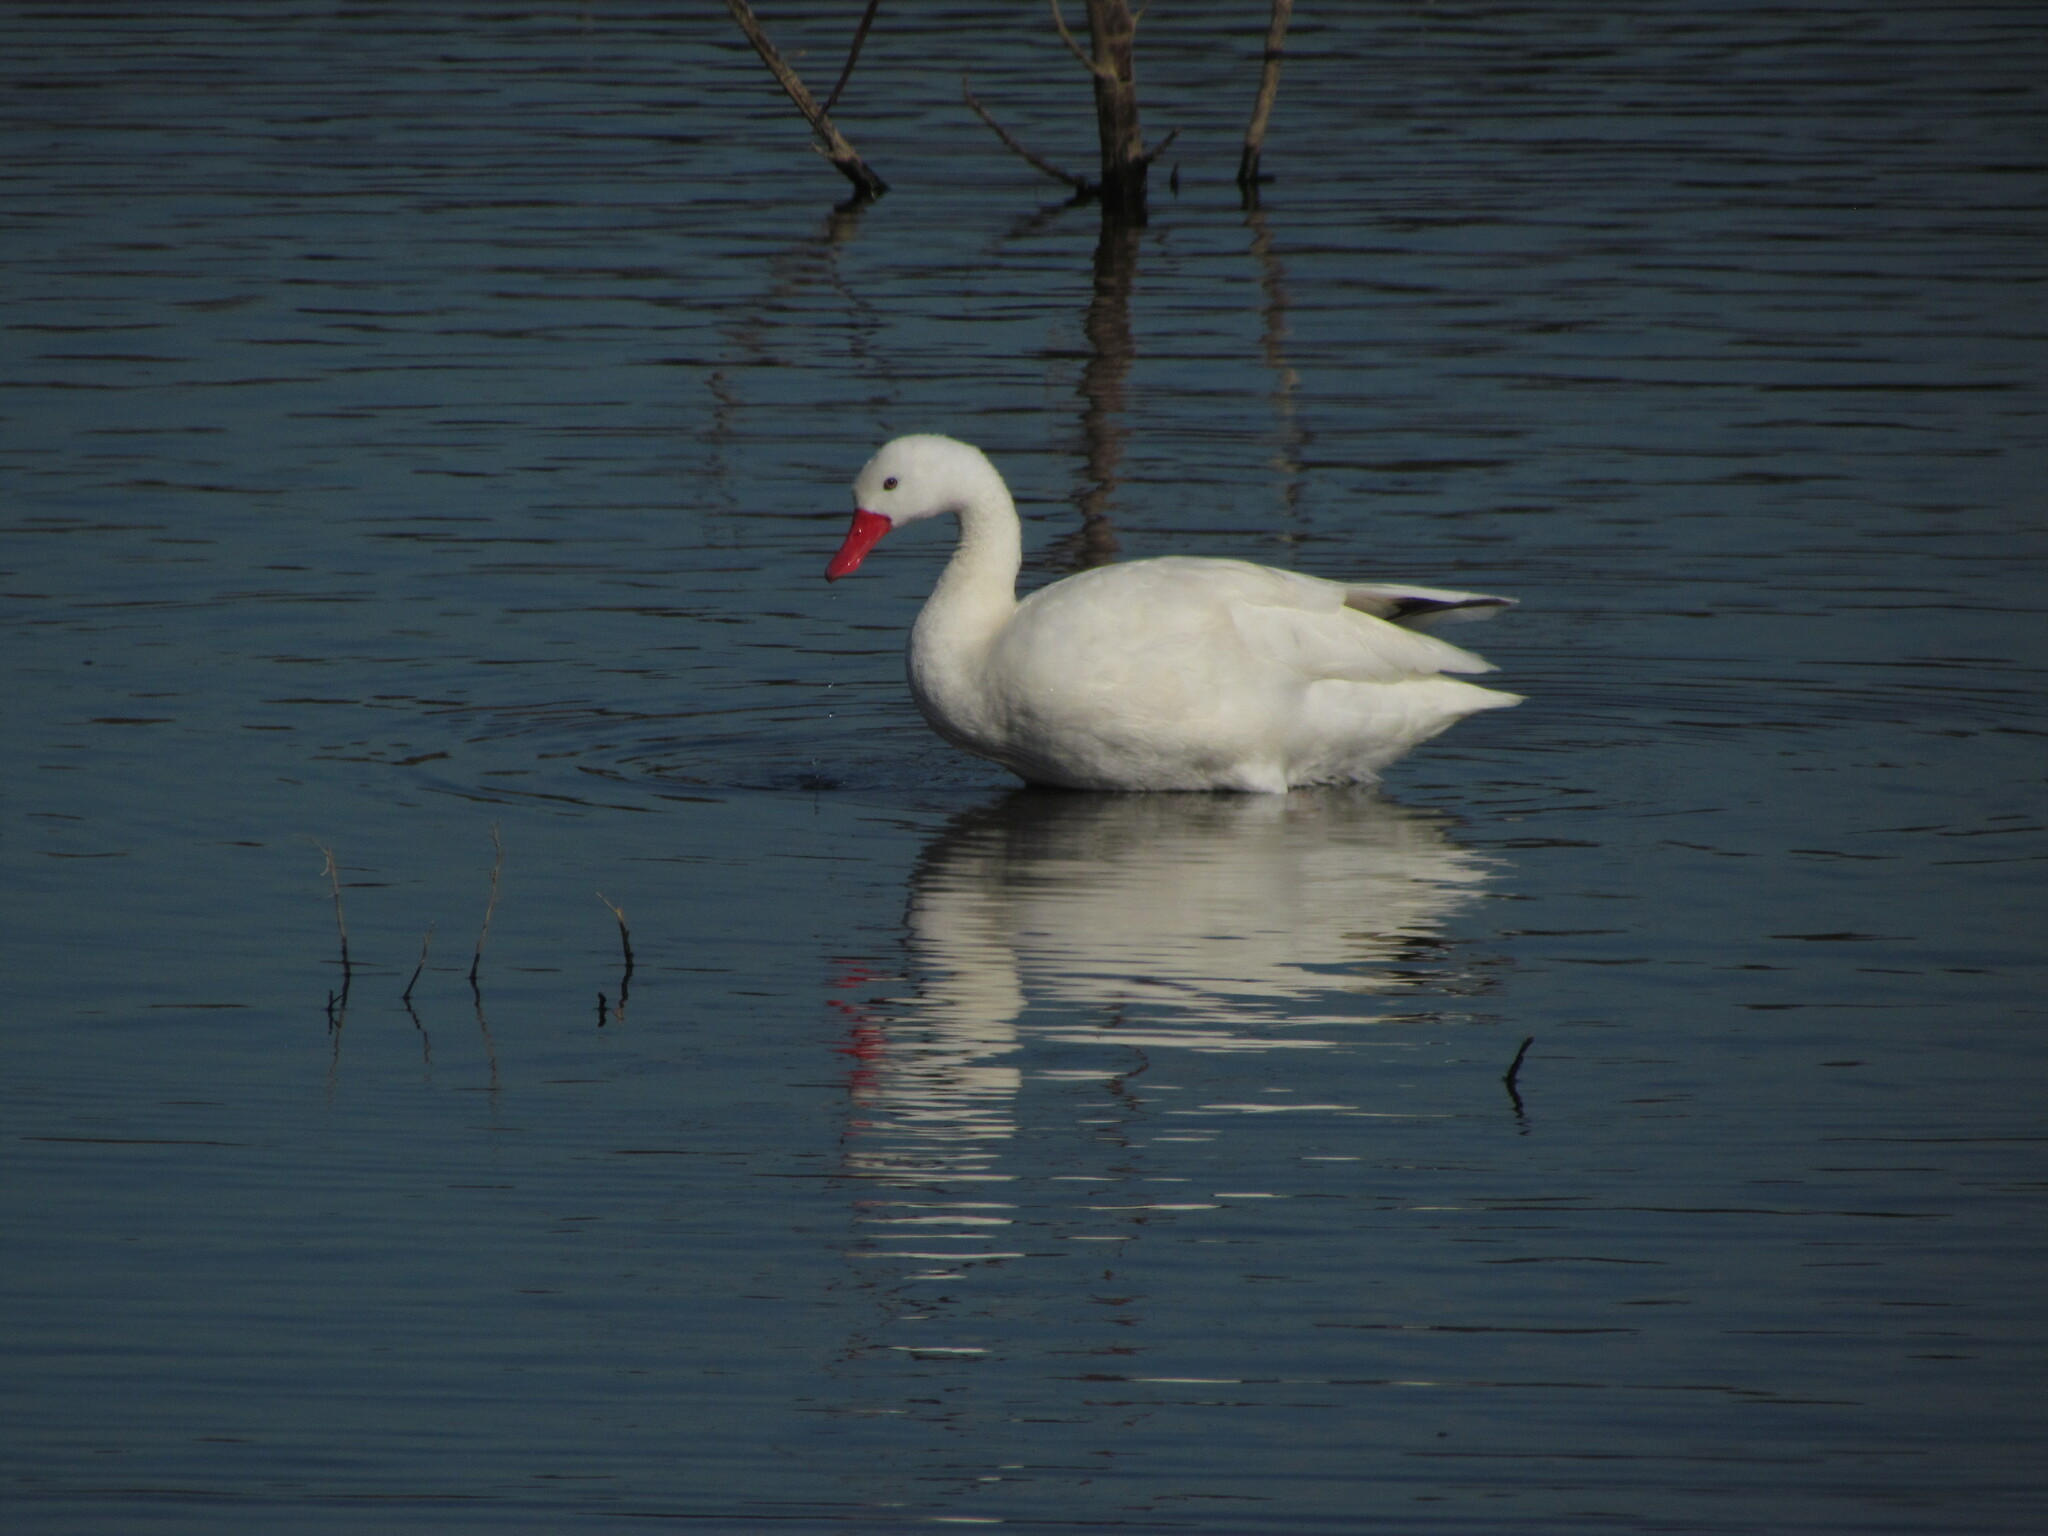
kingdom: Animalia
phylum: Chordata
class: Aves
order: Anseriformes
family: Anatidae
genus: Coscoroba
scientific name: Coscoroba coscoroba
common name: Coscoroba swan
